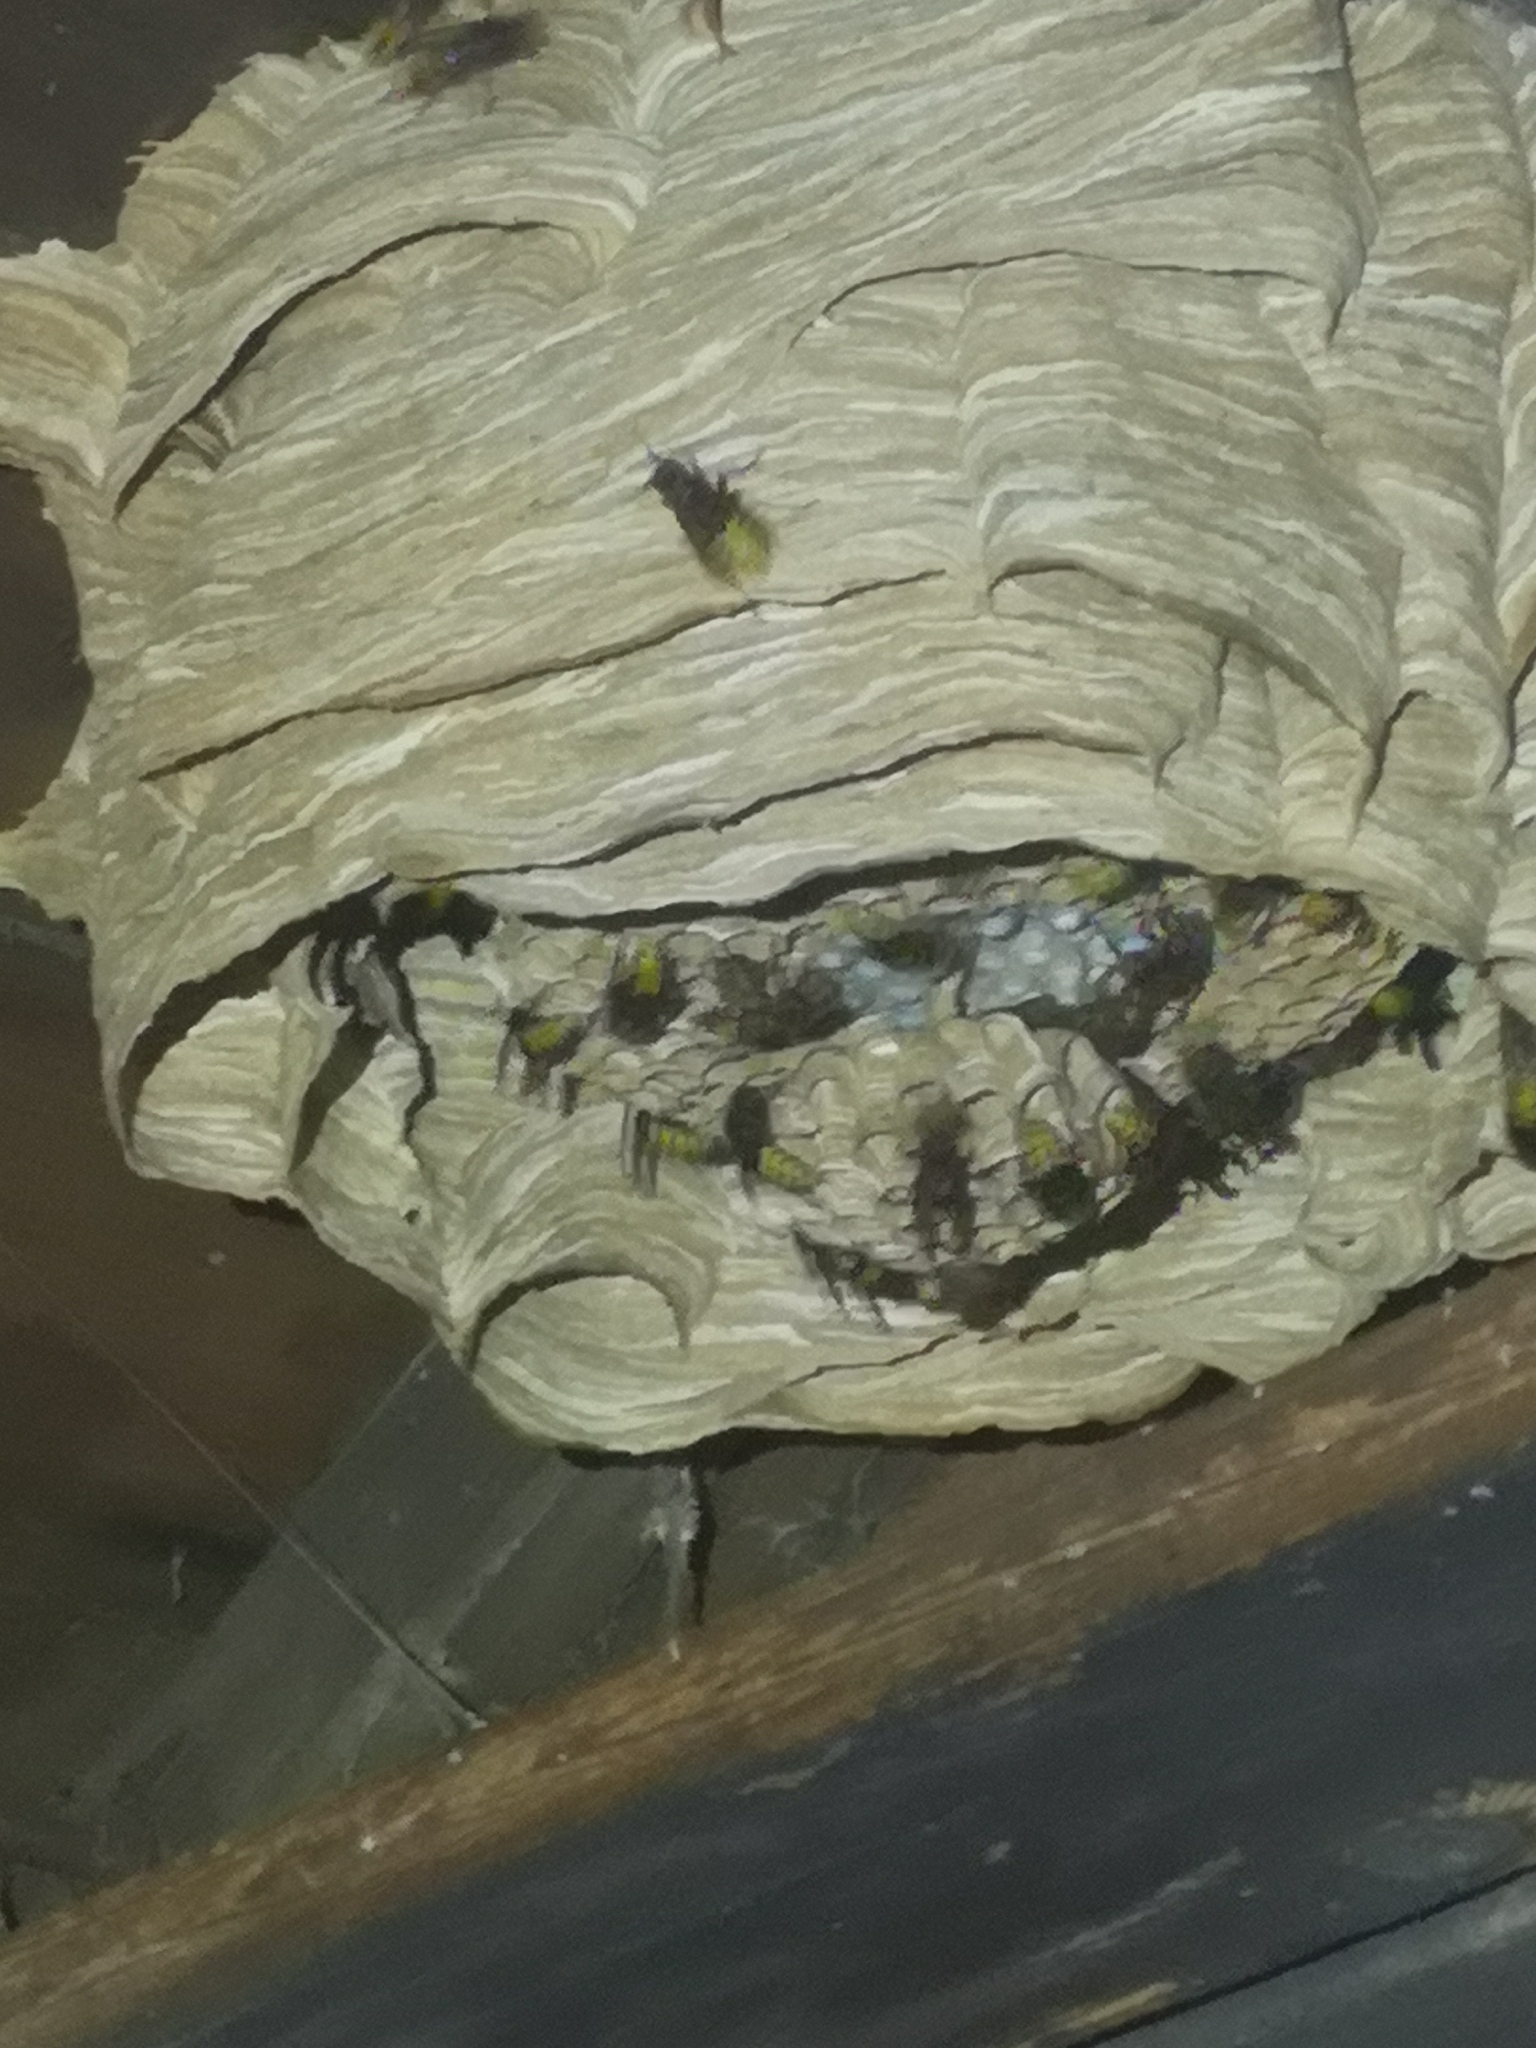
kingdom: Animalia
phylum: Arthropoda
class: Insecta
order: Hymenoptera
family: Vespidae
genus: Vespa
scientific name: Vespa crabro
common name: Hornet
